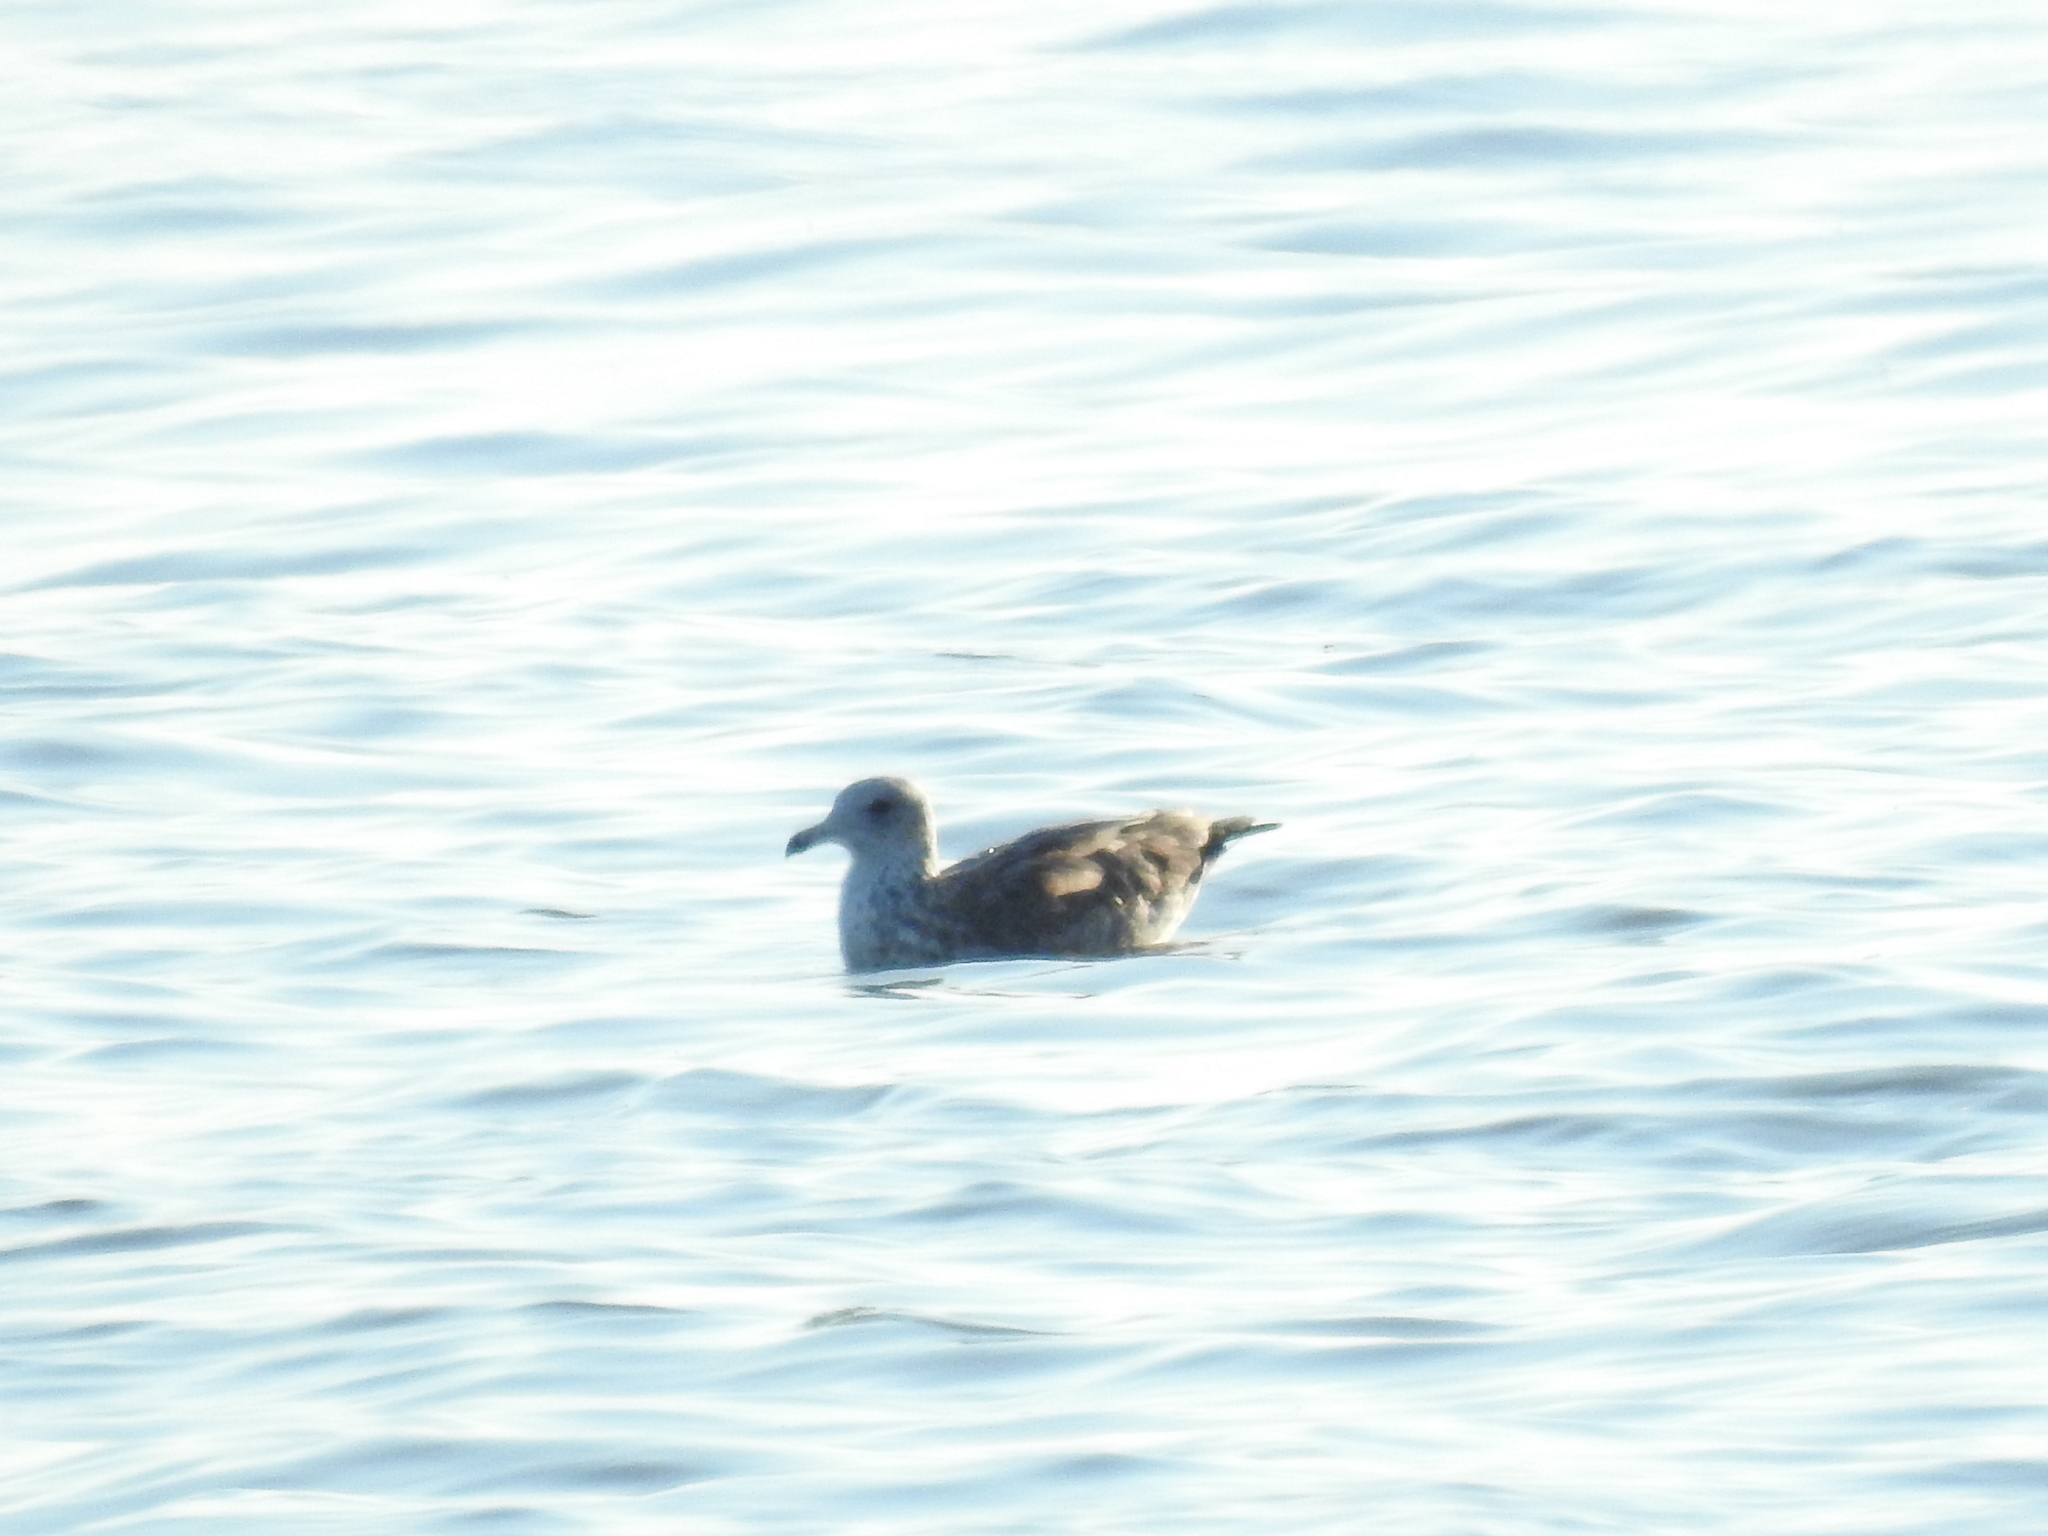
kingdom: Animalia
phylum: Chordata
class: Aves
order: Charadriiformes
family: Laridae
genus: Larus
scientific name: Larus californicus
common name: California gull
